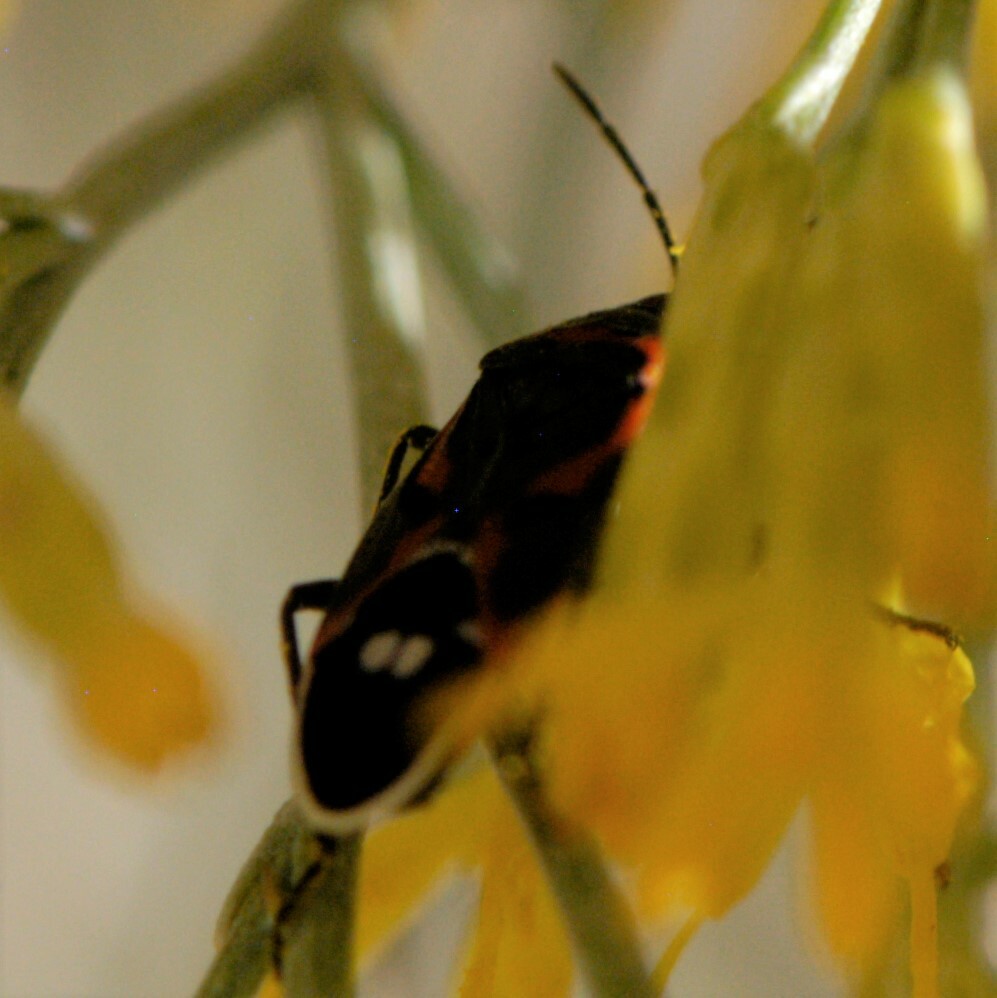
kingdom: Animalia
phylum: Arthropoda
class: Insecta
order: Hemiptera
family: Lygaeidae
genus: Lygaeus
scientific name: Lygaeus kalmii
